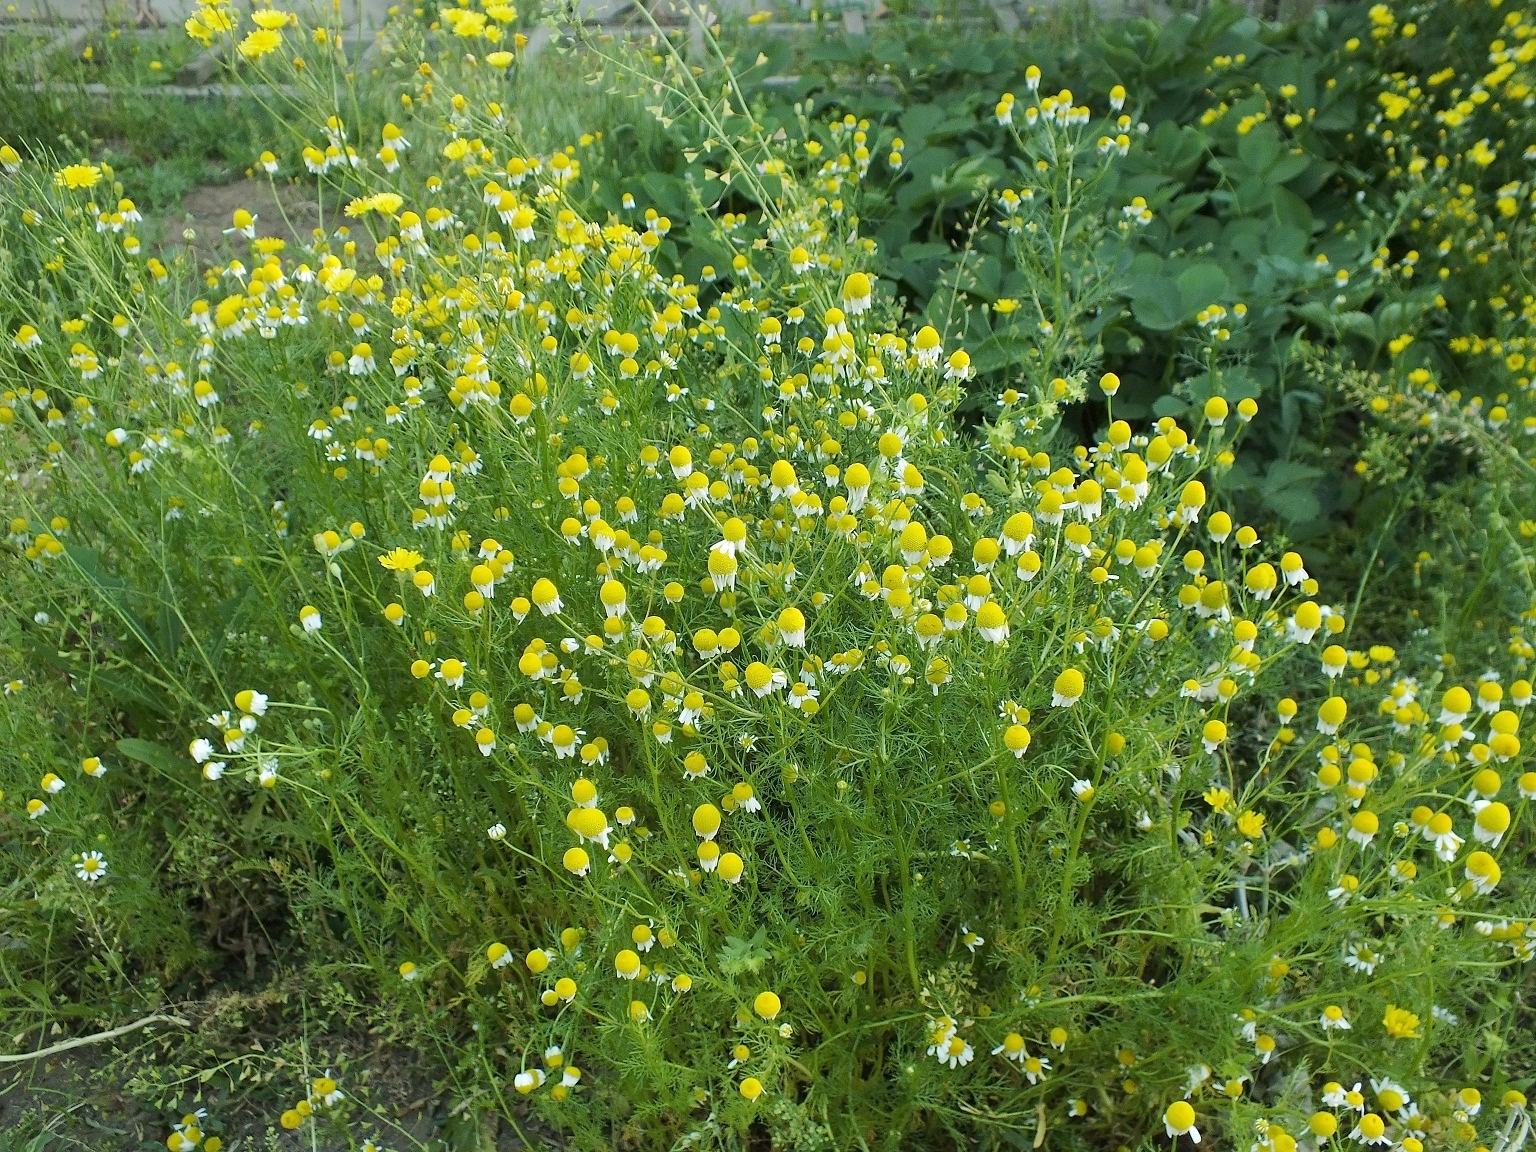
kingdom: Plantae
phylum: Tracheophyta
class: Magnoliopsida
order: Asterales
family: Asteraceae
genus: Matricaria
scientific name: Matricaria chamomilla
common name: Scented mayweed
